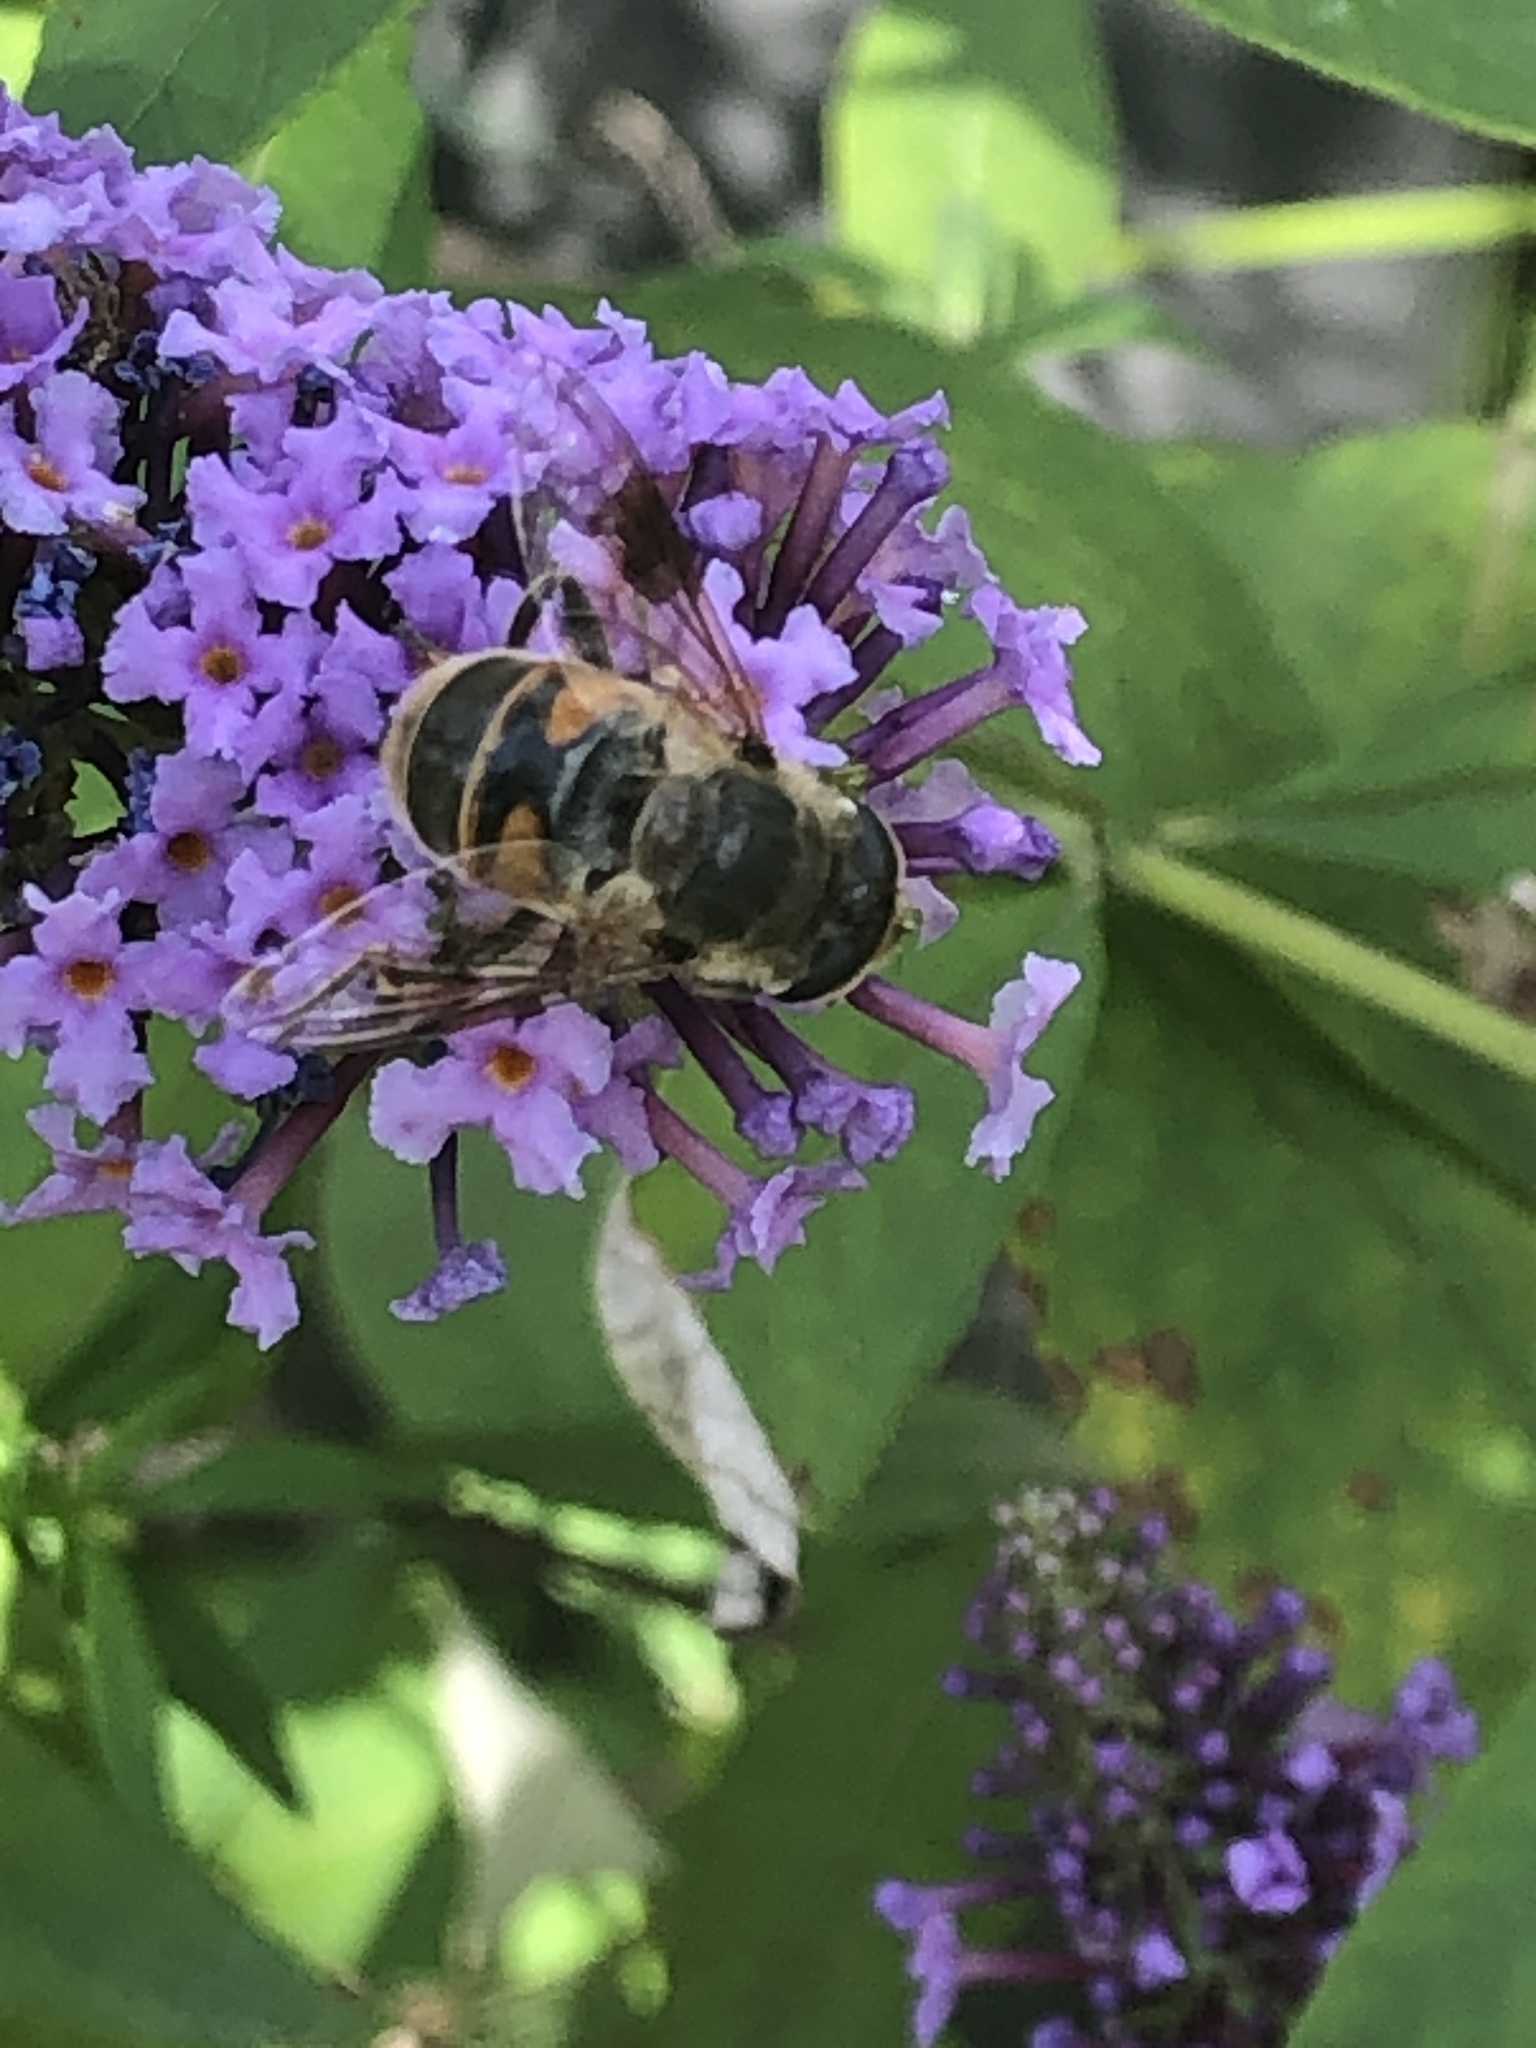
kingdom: Animalia
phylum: Arthropoda
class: Insecta
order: Diptera
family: Syrphidae
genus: Eristalis
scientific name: Eristalis tenax
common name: Drone fly
